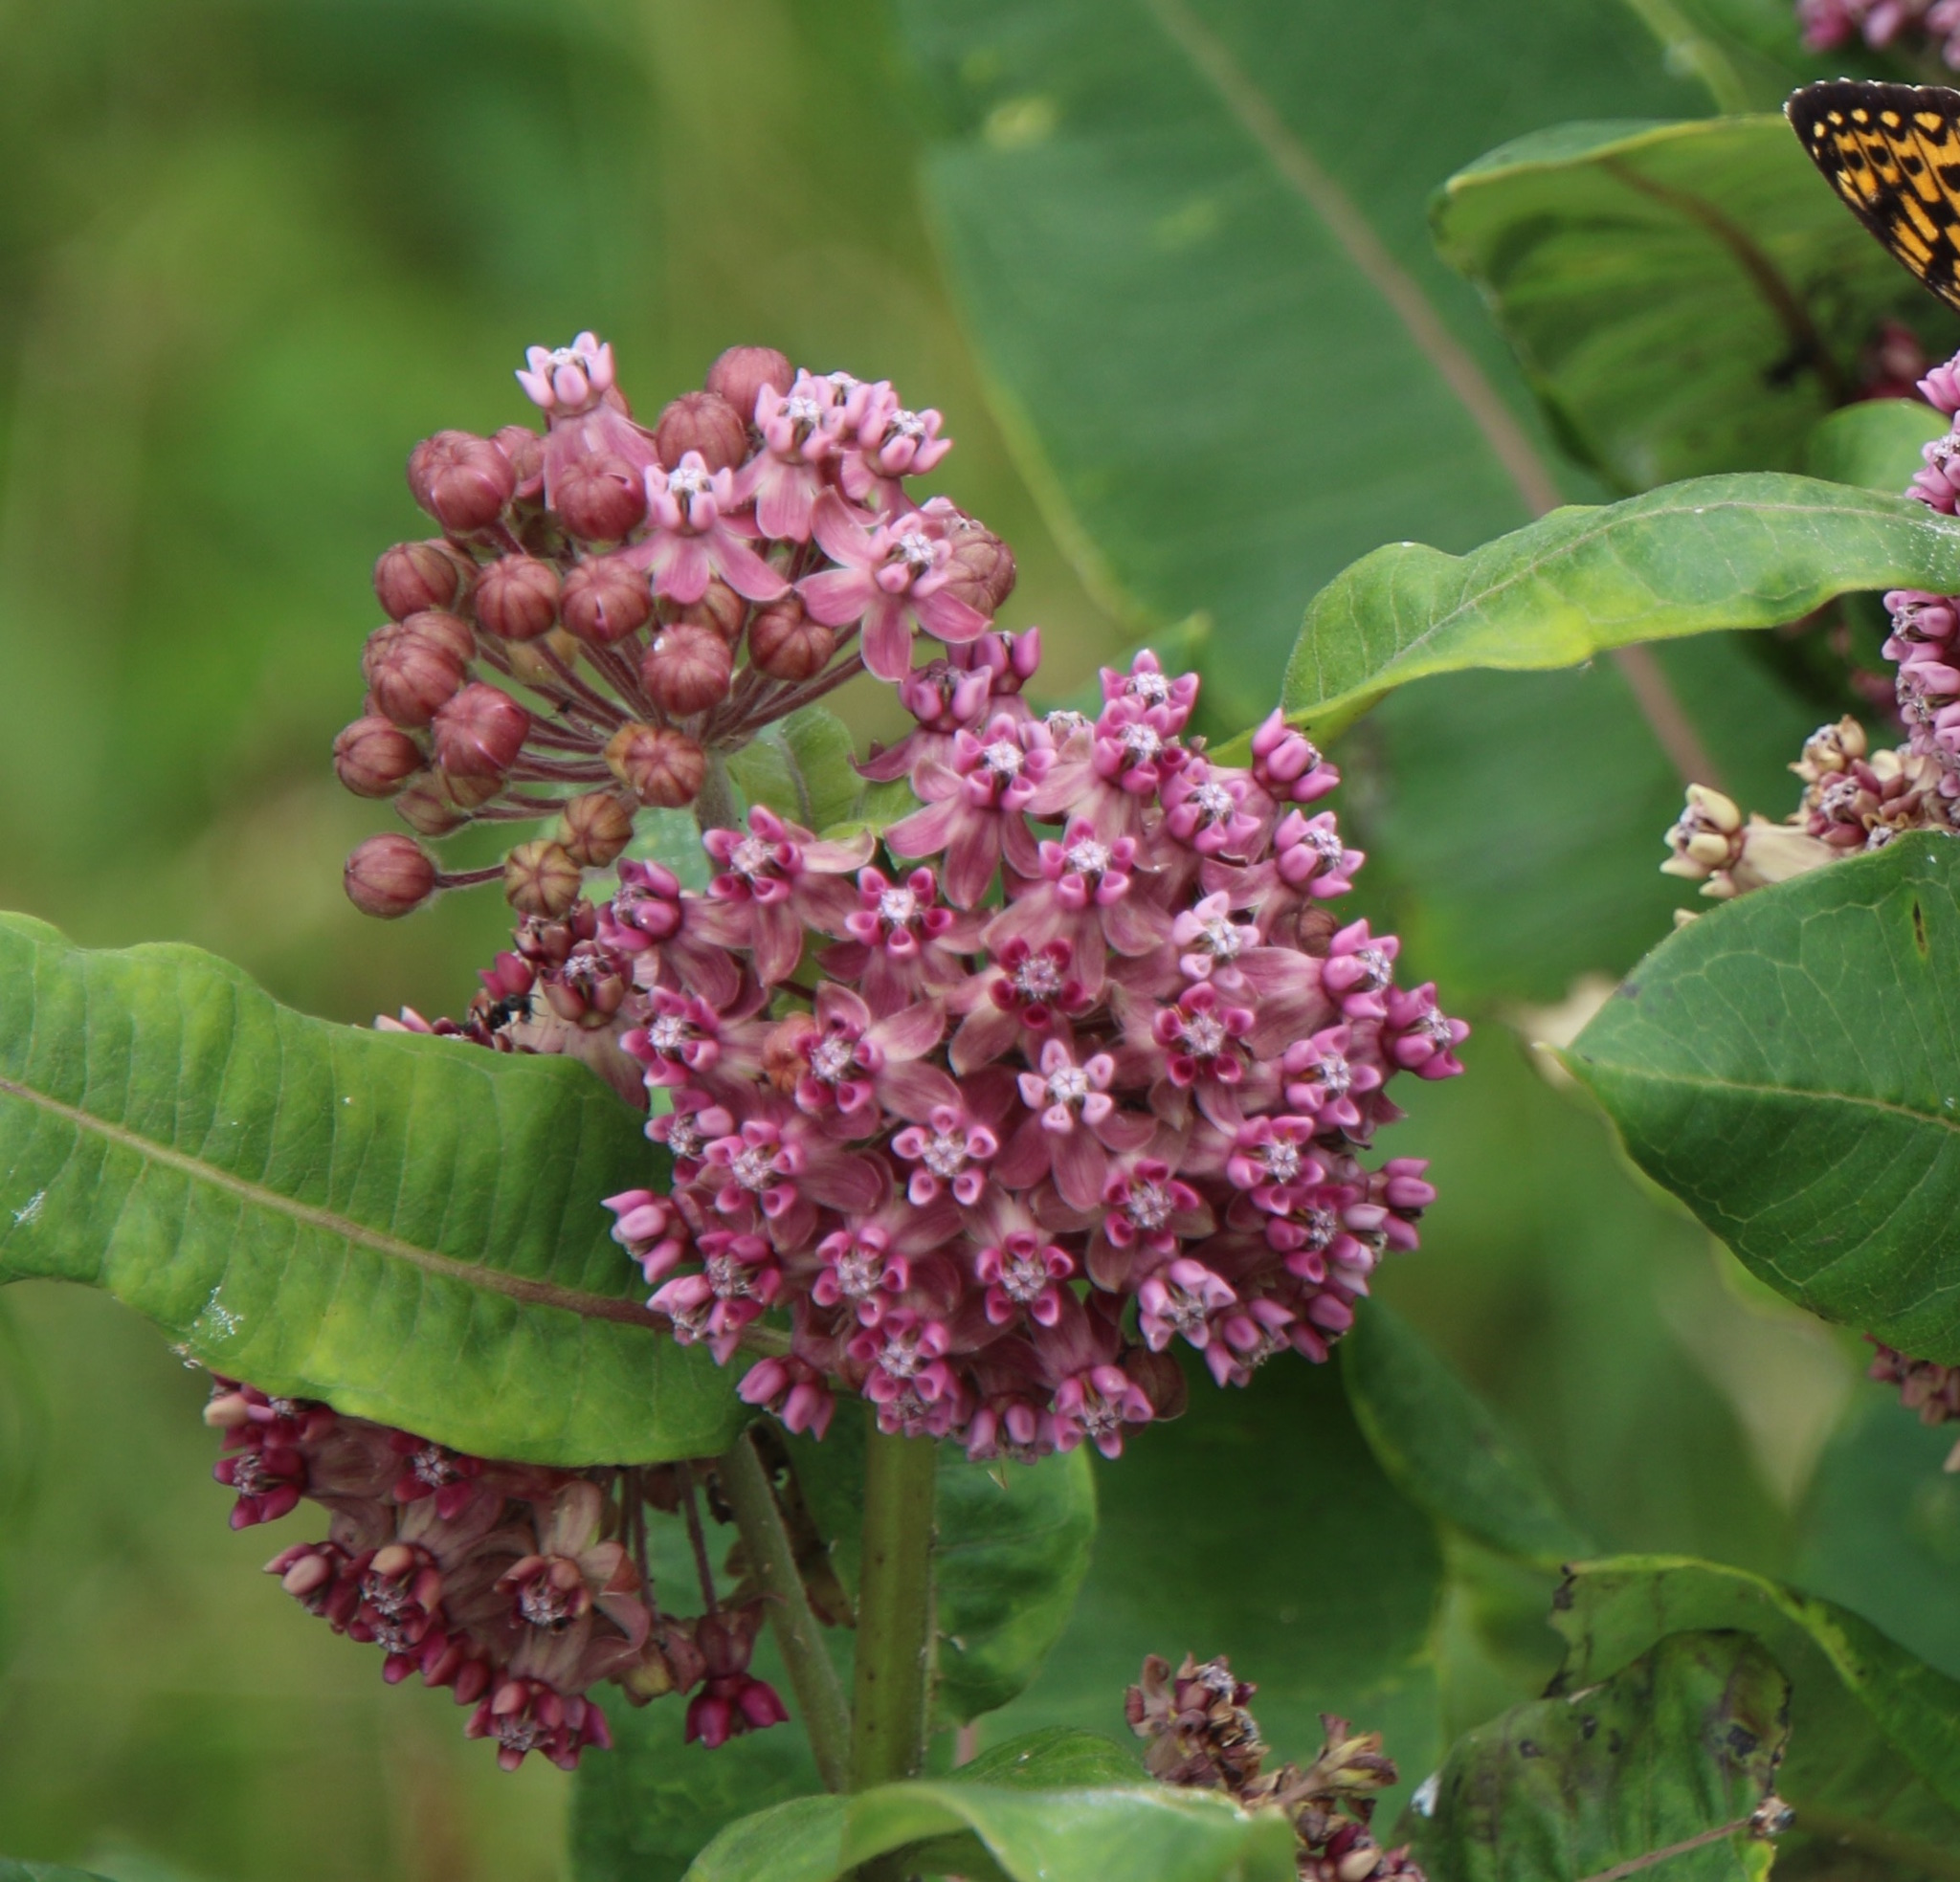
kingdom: Plantae
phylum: Tracheophyta
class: Magnoliopsida
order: Gentianales
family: Apocynaceae
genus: Asclepias
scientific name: Asclepias syriaca
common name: Common milkweed
